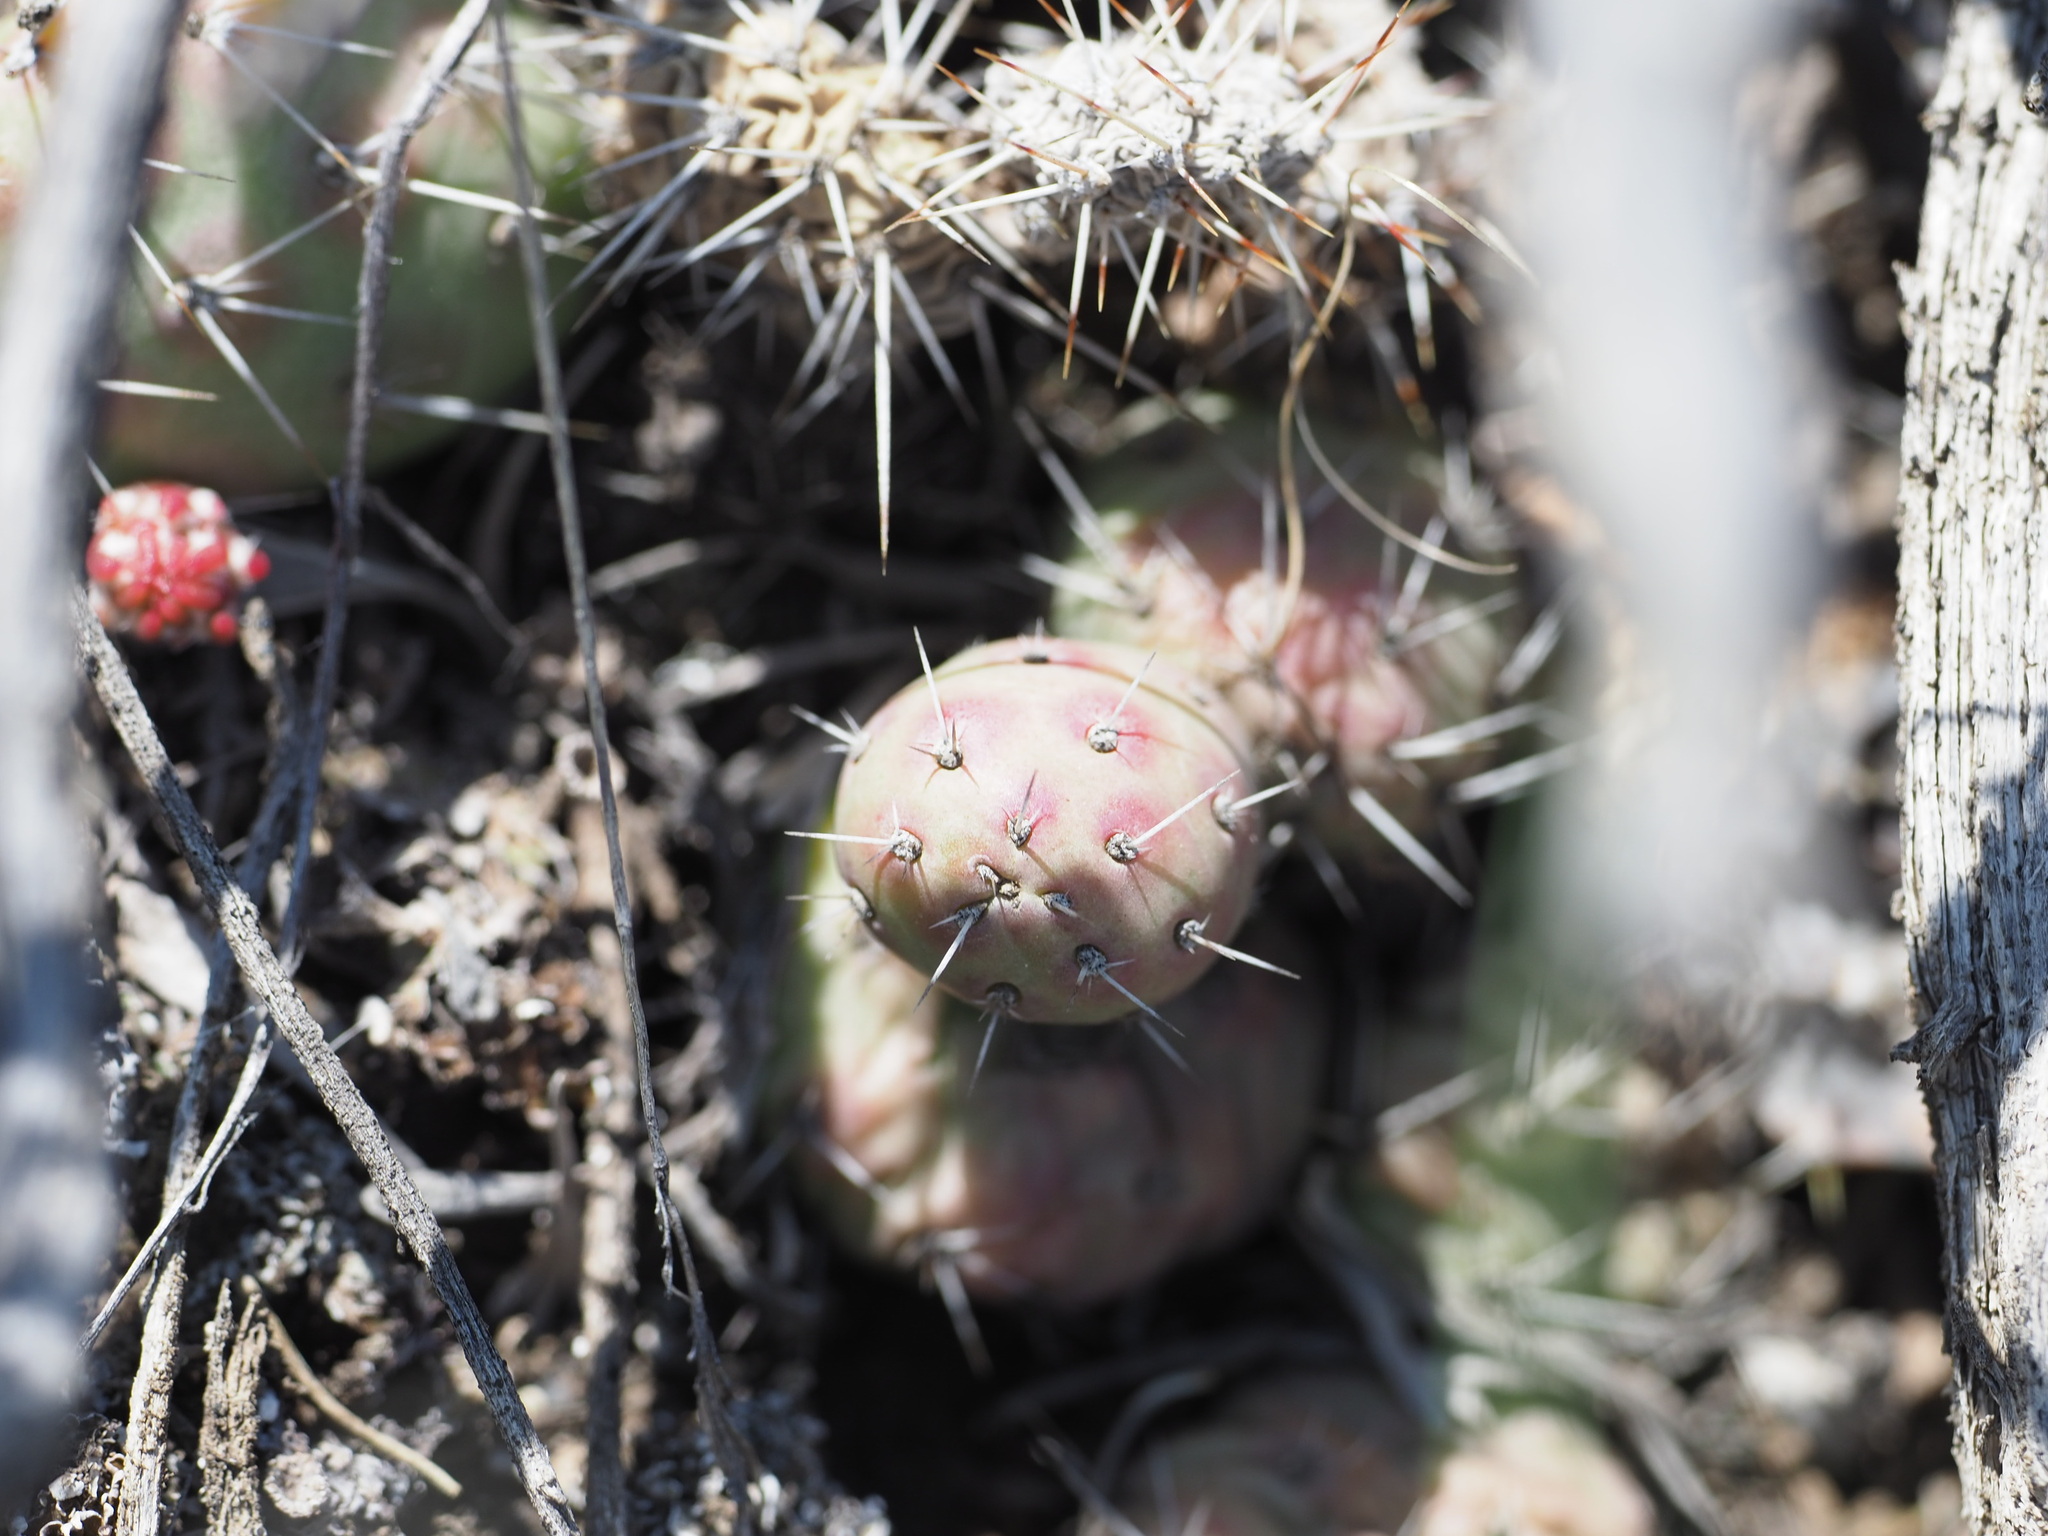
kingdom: Plantae
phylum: Tracheophyta
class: Magnoliopsida
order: Caryophyllales
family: Cactaceae
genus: Opuntia
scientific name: Opuntia fragilis
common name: Brittle cactus
